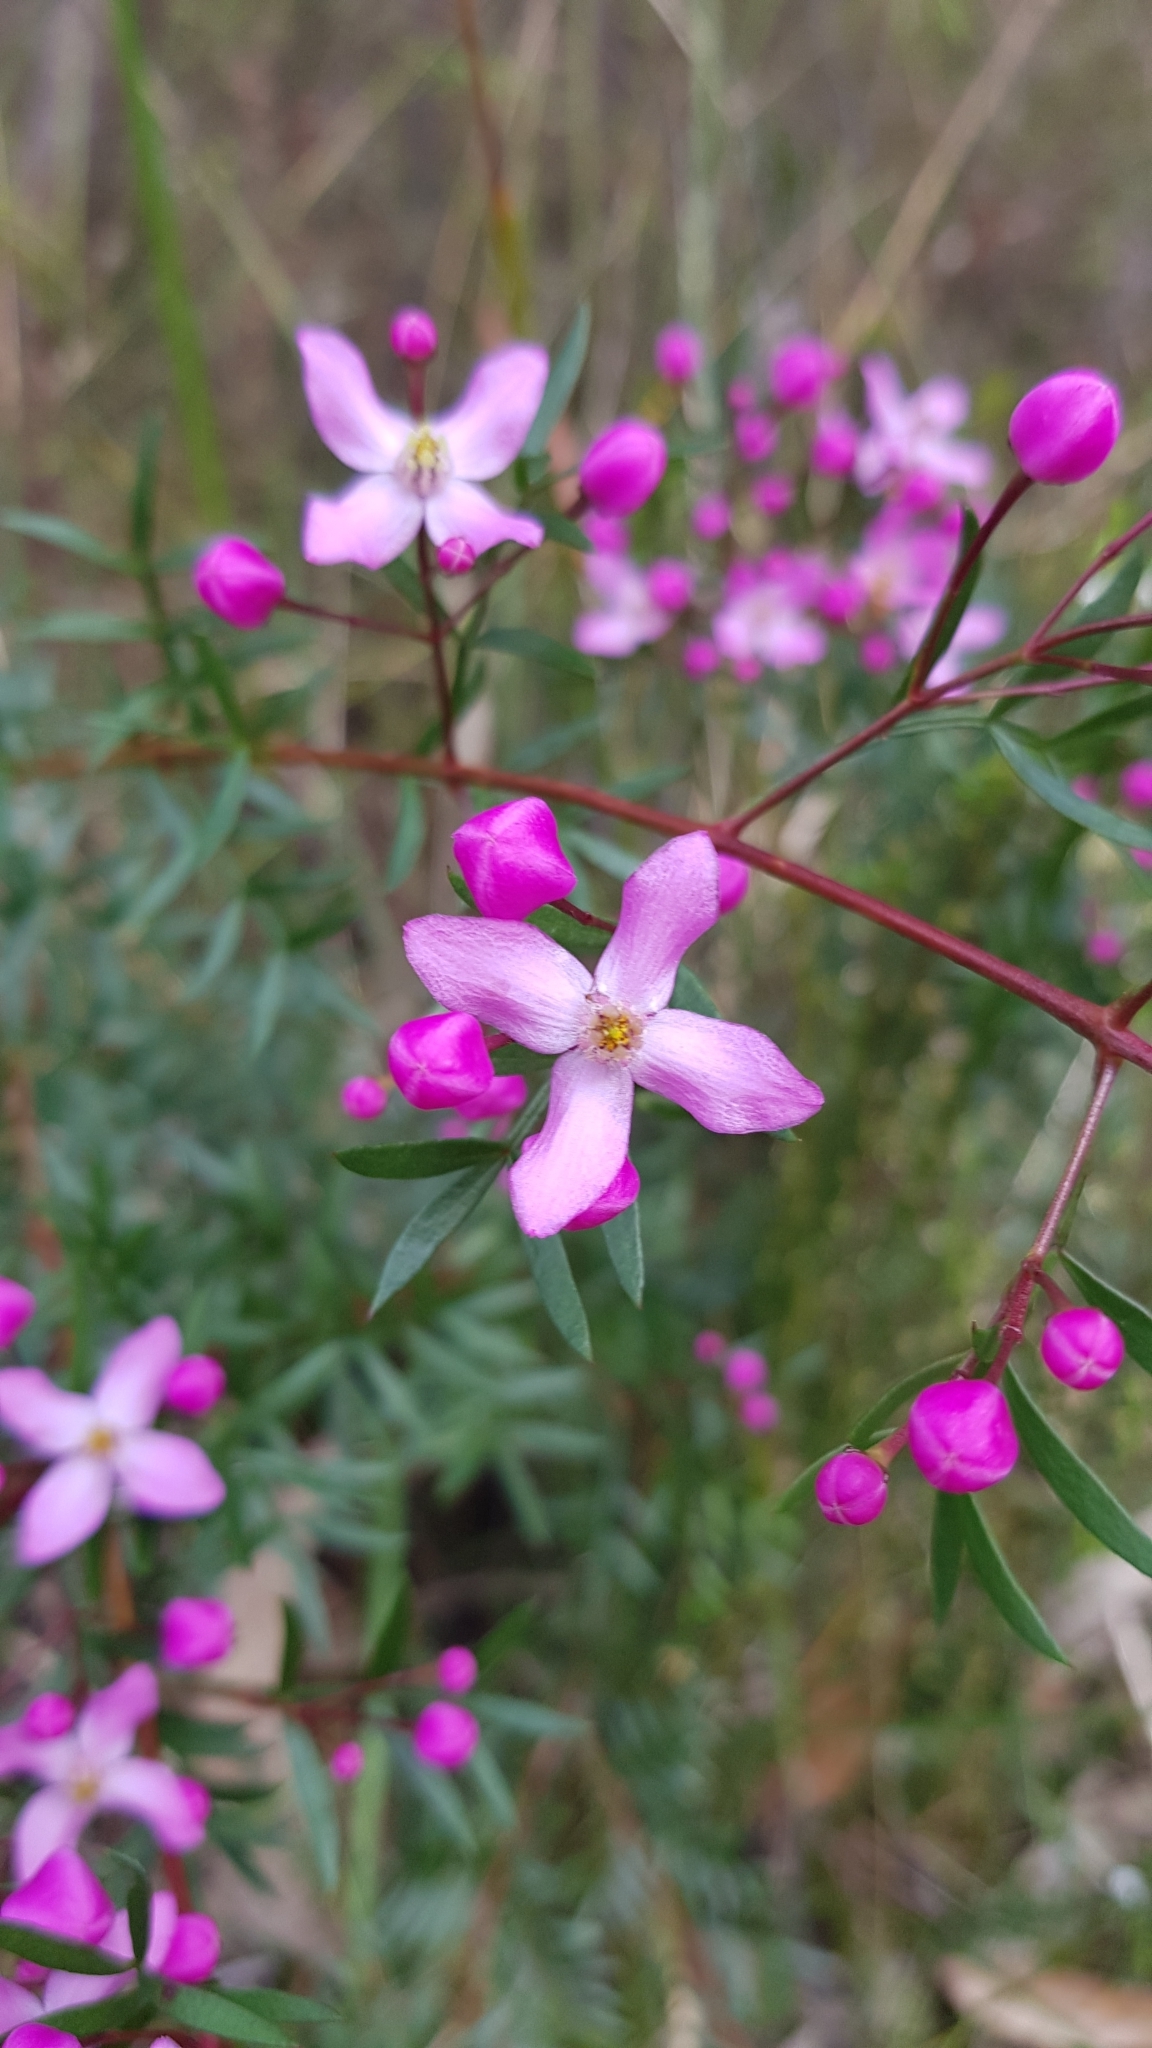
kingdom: Plantae
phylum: Tracheophyta
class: Magnoliopsida
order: Sapindales
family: Rutaceae
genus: Boronia
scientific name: Boronia pinnata
